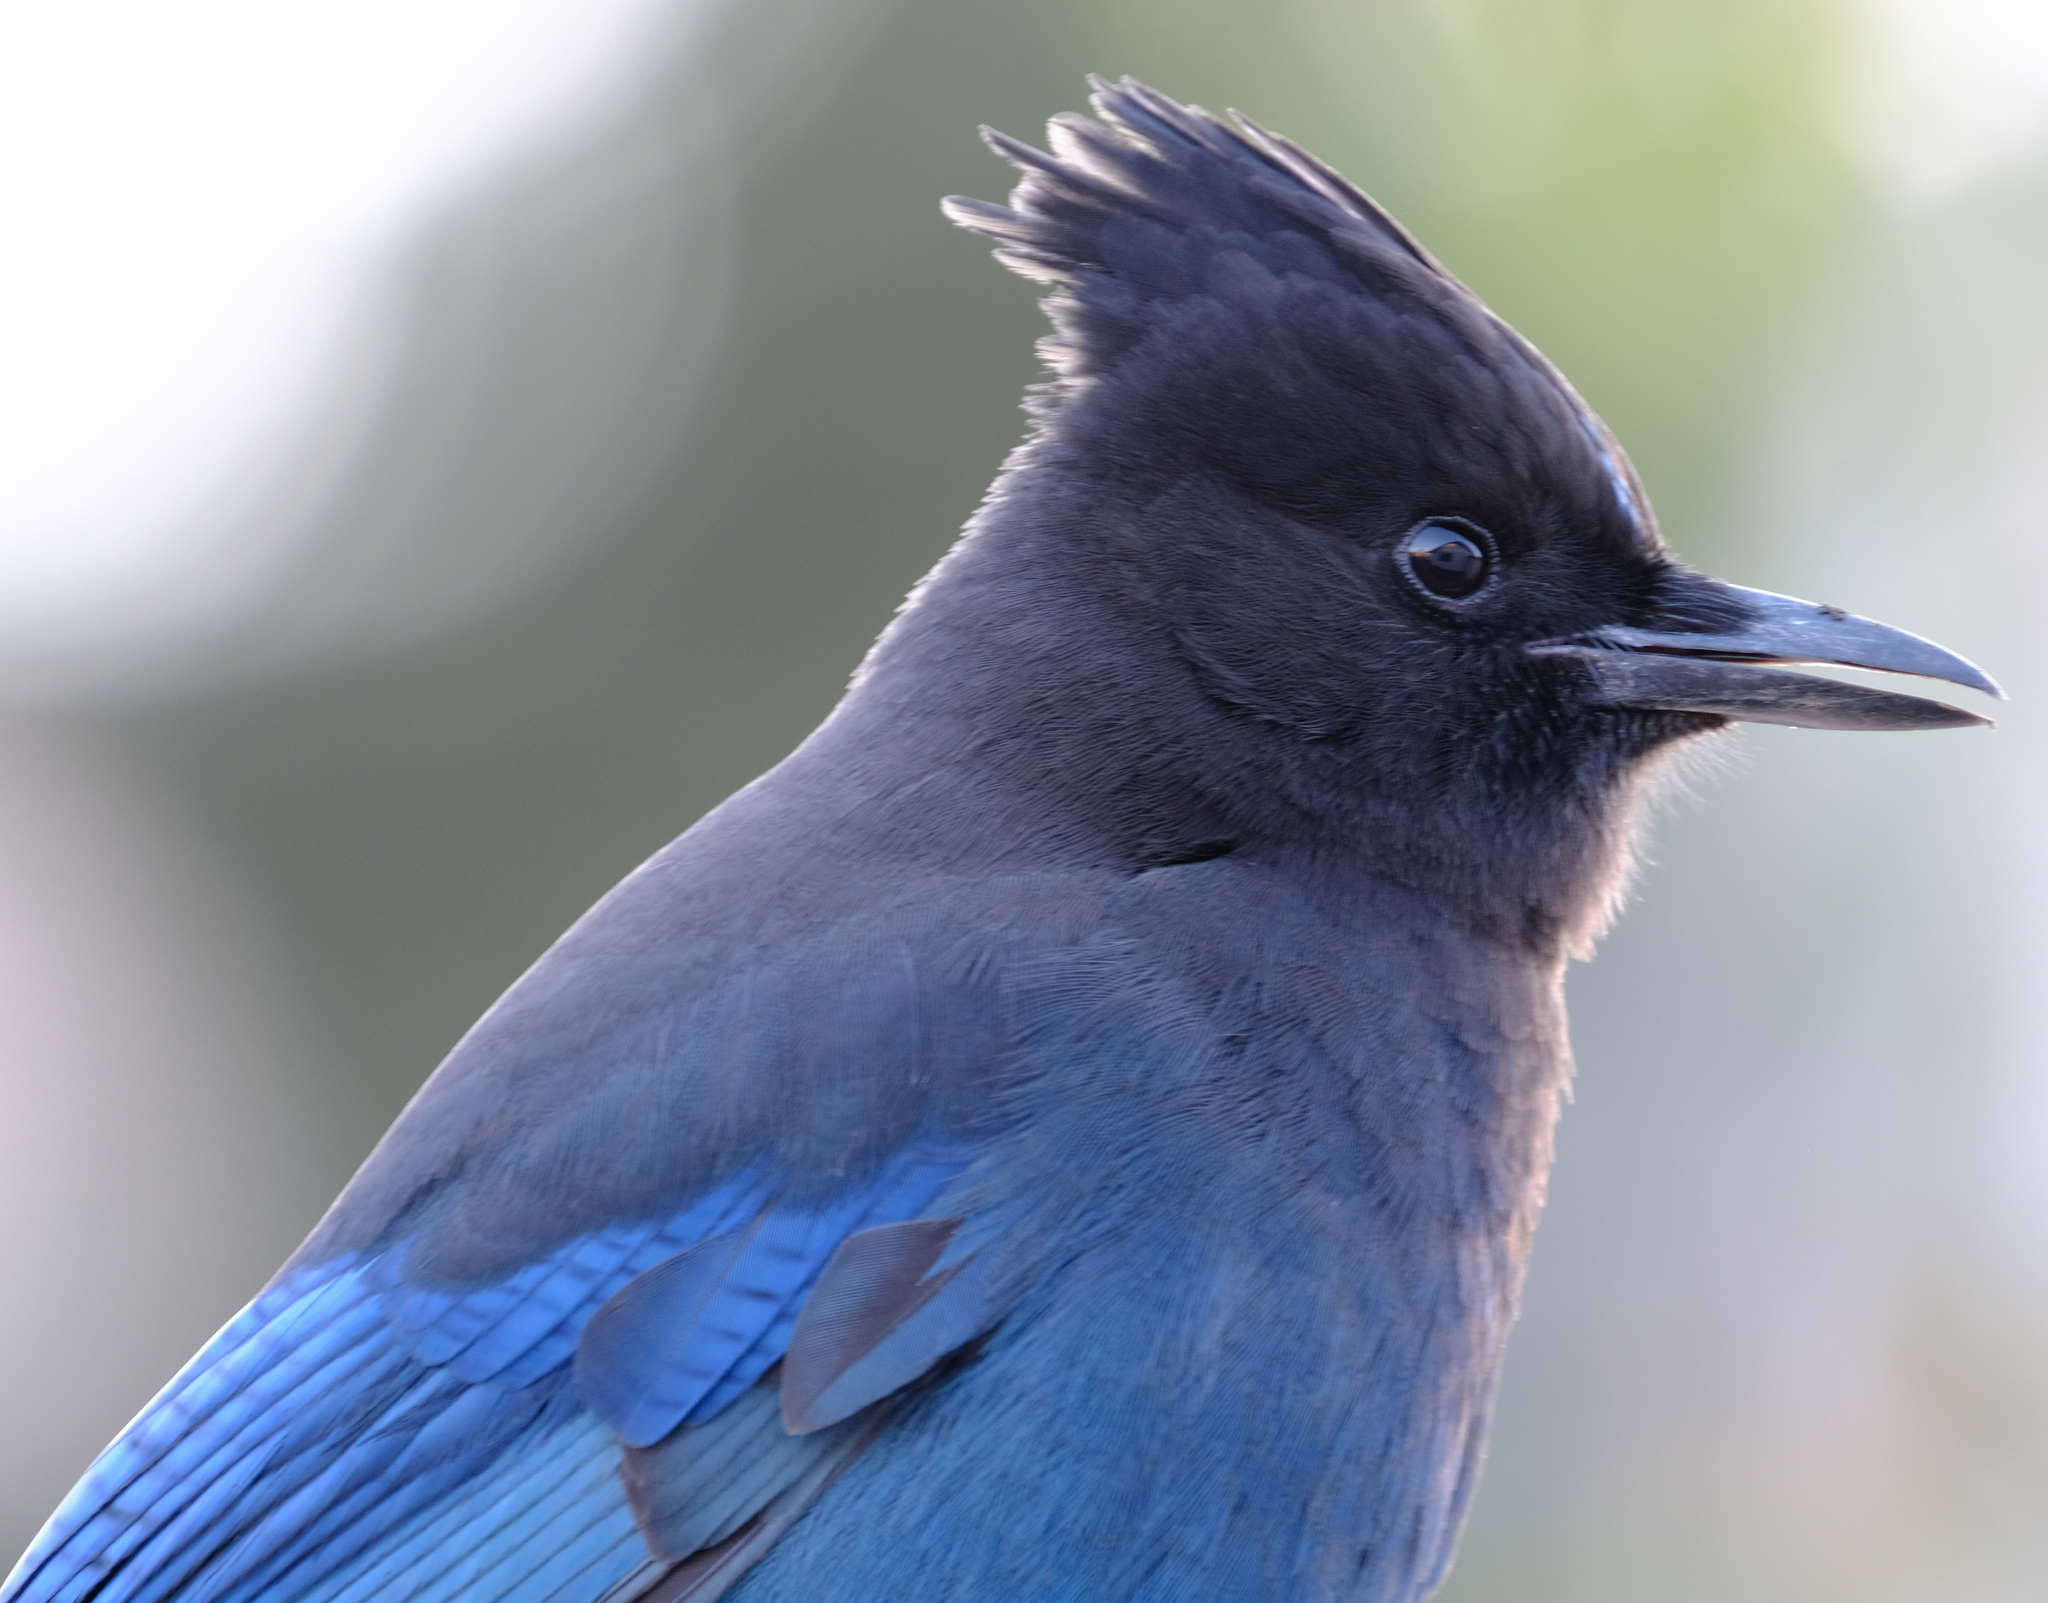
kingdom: Animalia
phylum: Chordata
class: Aves
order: Passeriformes
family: Corvidae
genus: Cyanocitta
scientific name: Cyanocitta stelleri
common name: Steller's jay
